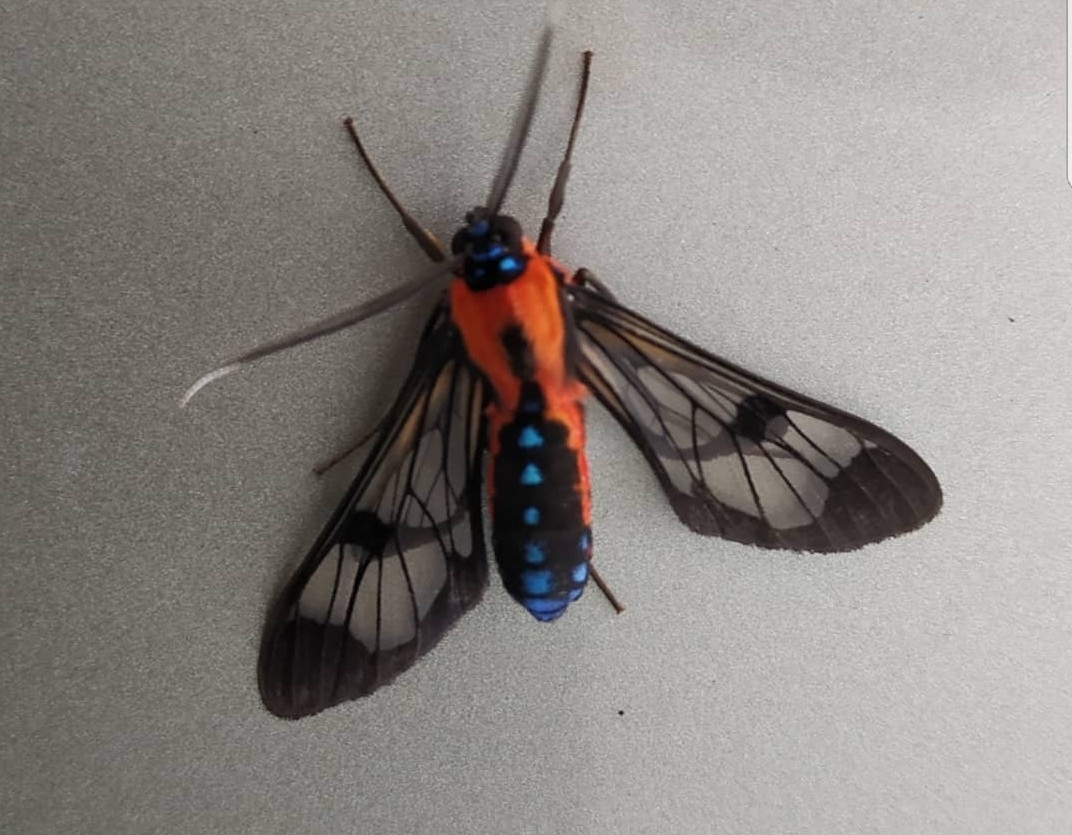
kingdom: Animalia
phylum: Arthropoda
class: Insecta
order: Lepidoptera
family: Erebidae
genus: Cosmosoma
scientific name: Cosmosoma myrodora
